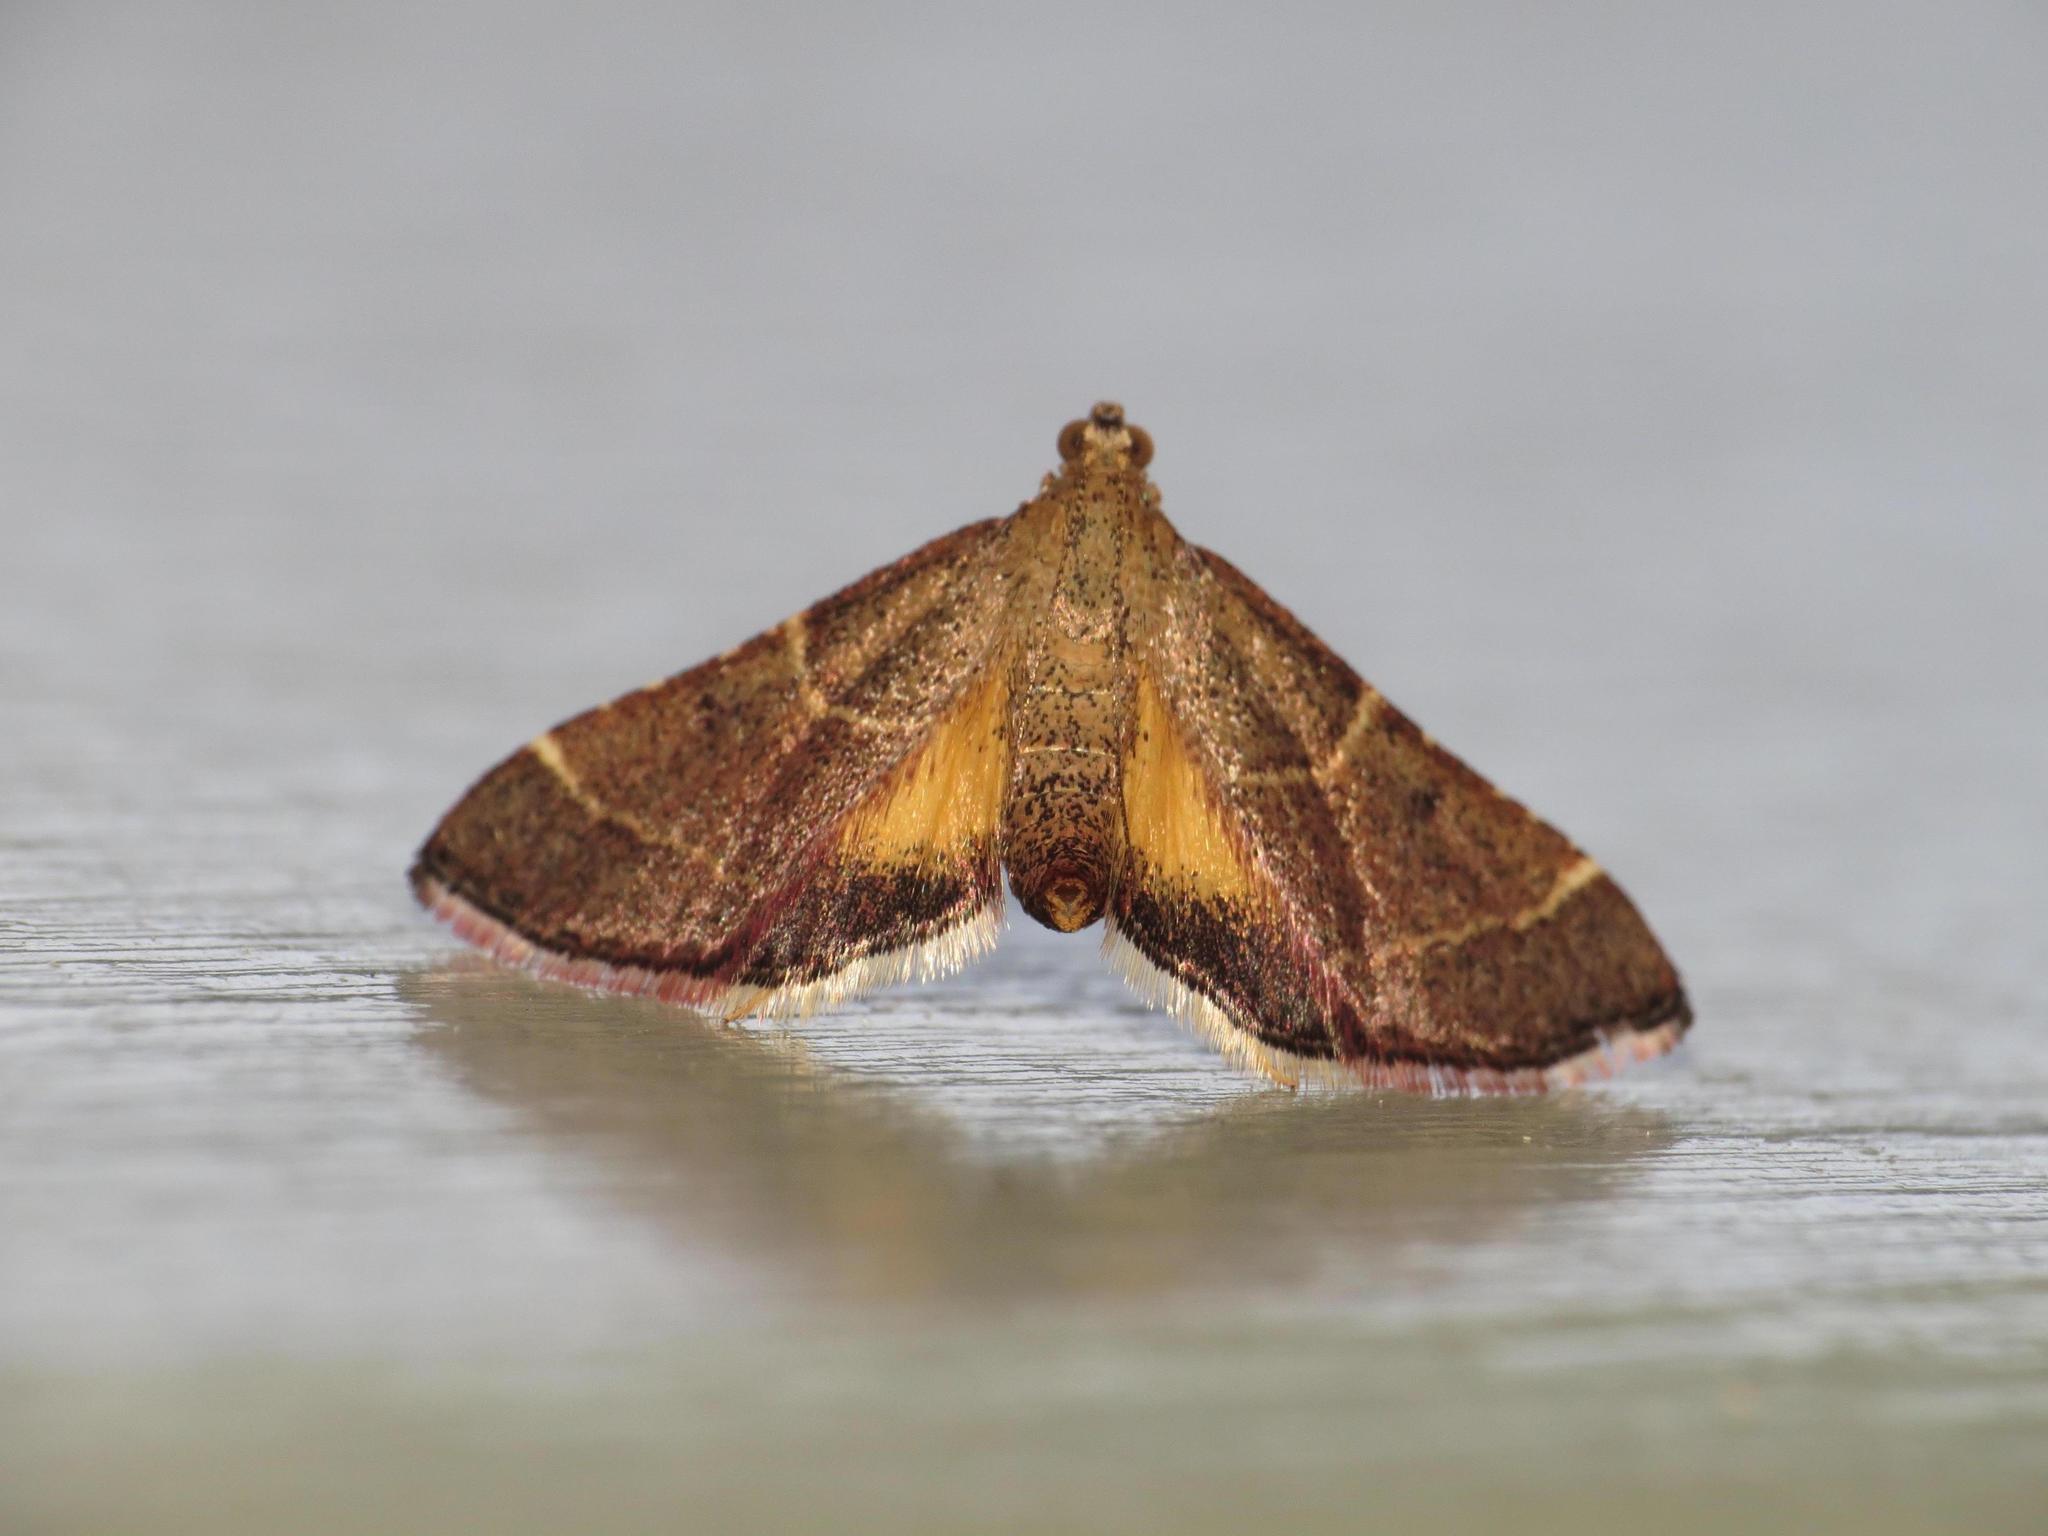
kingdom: Animalia
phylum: Arthropoda
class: Insecta
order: Lepidoptera
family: Pyralidae
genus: Persicoptera
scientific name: Persicoptera aglaopa
